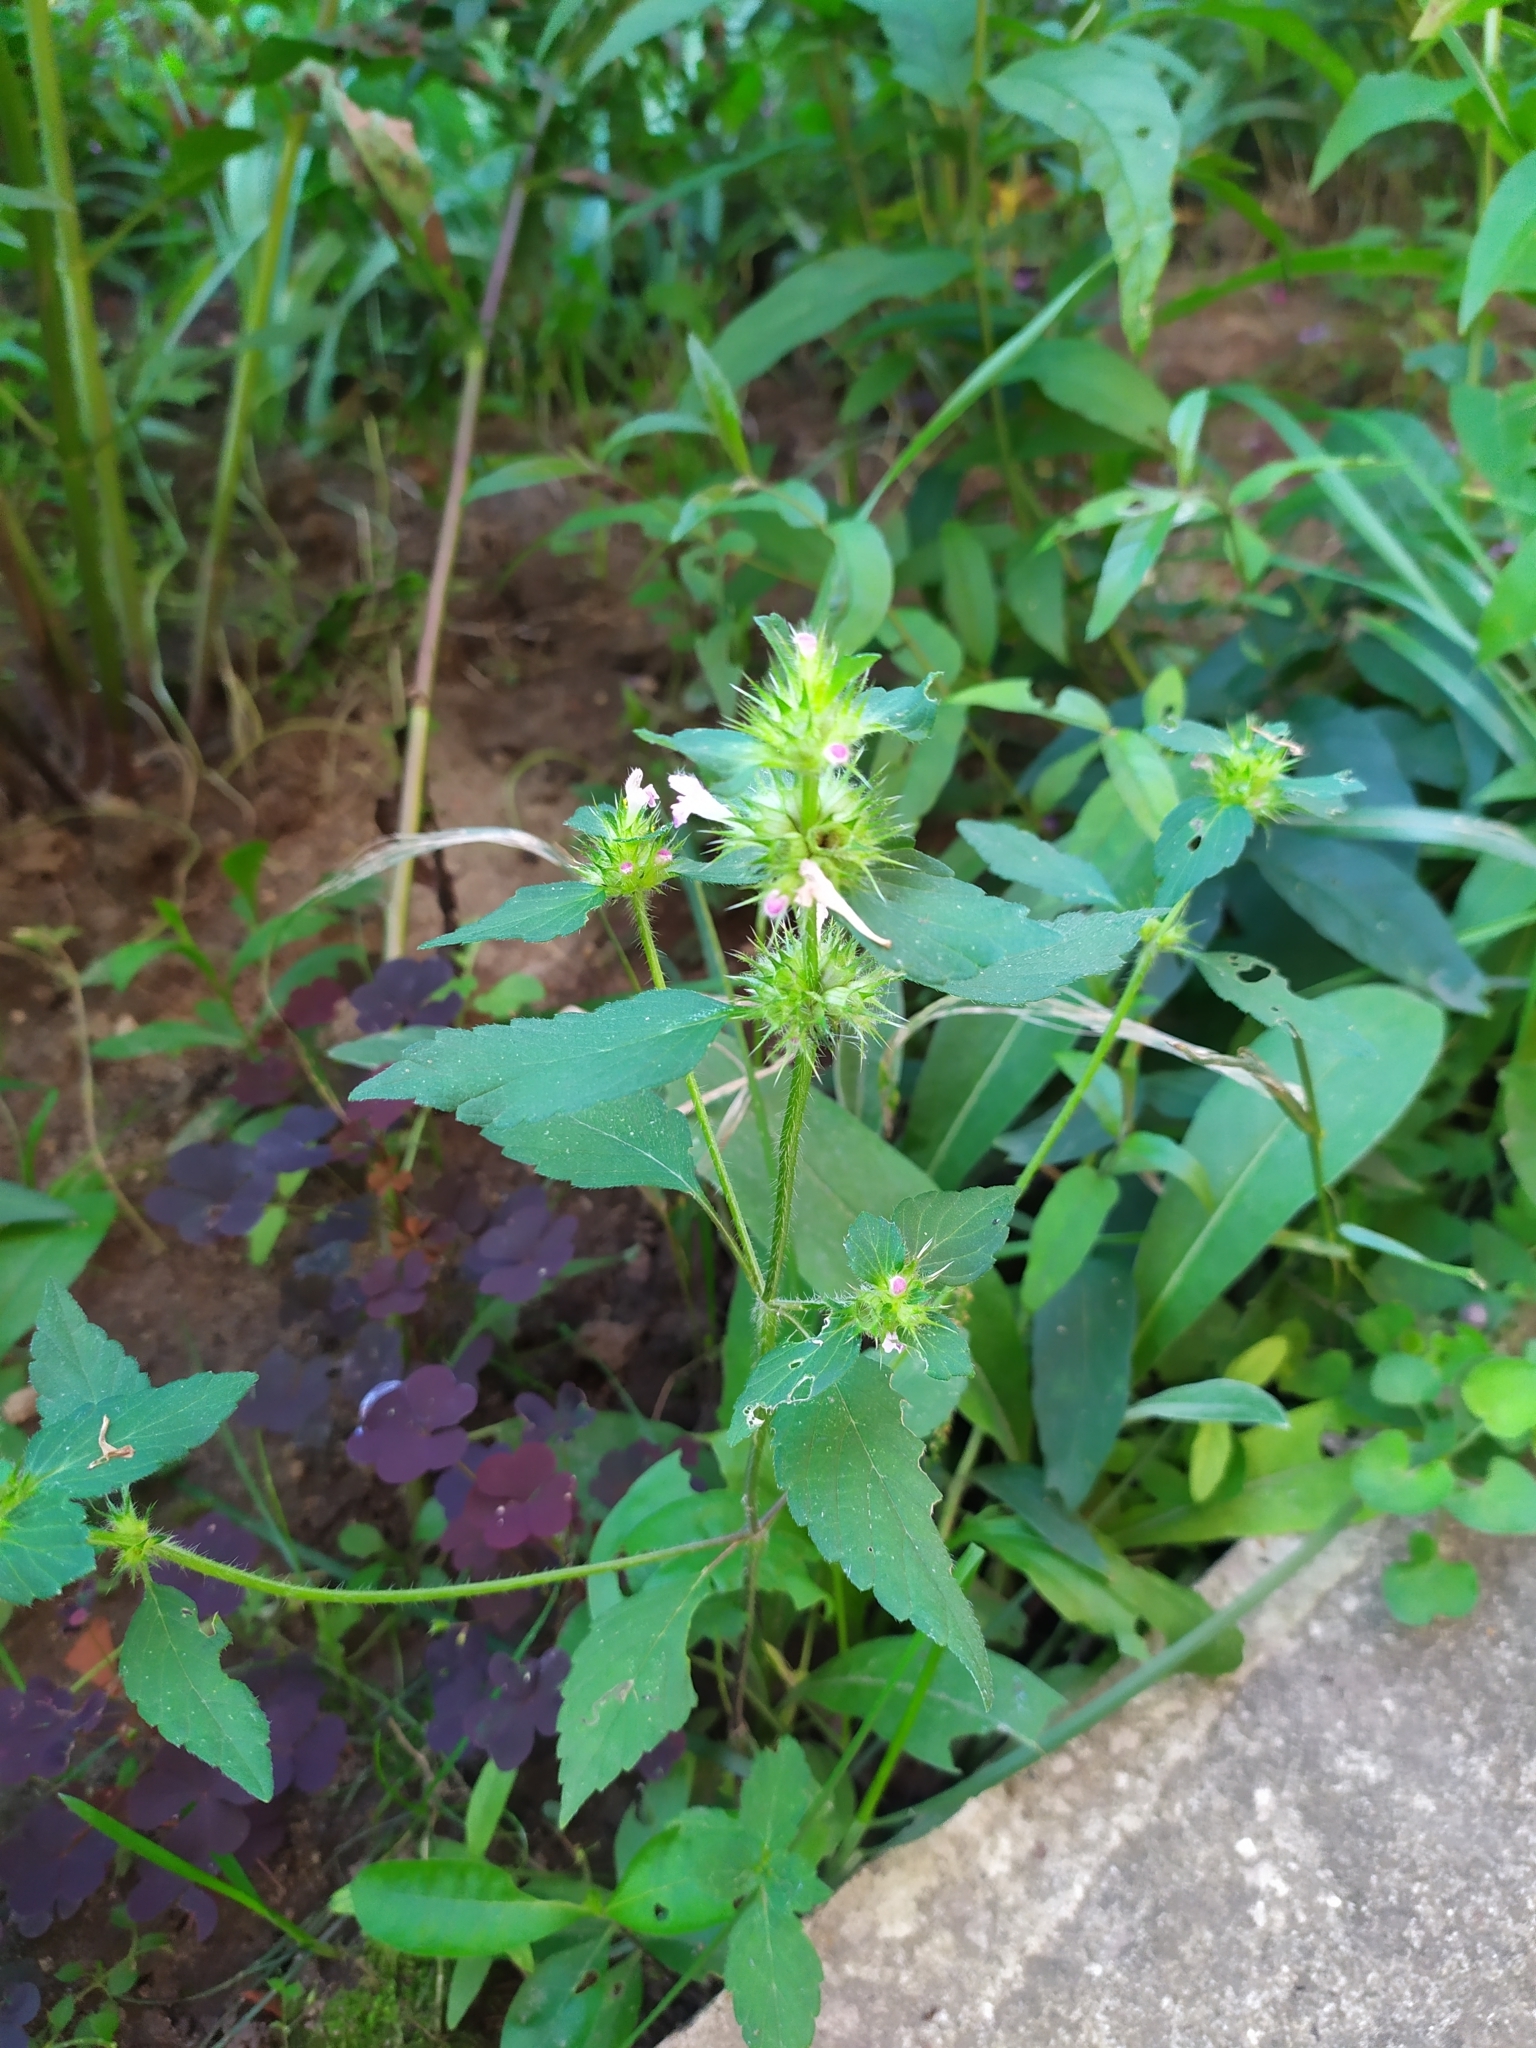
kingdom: Plantae
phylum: Tracheophyta
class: Magnoliopsida
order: Lamiales
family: Lamiaceae
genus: Galeopsis
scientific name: Galeopsis bifida
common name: Bifid hemp-nettle
